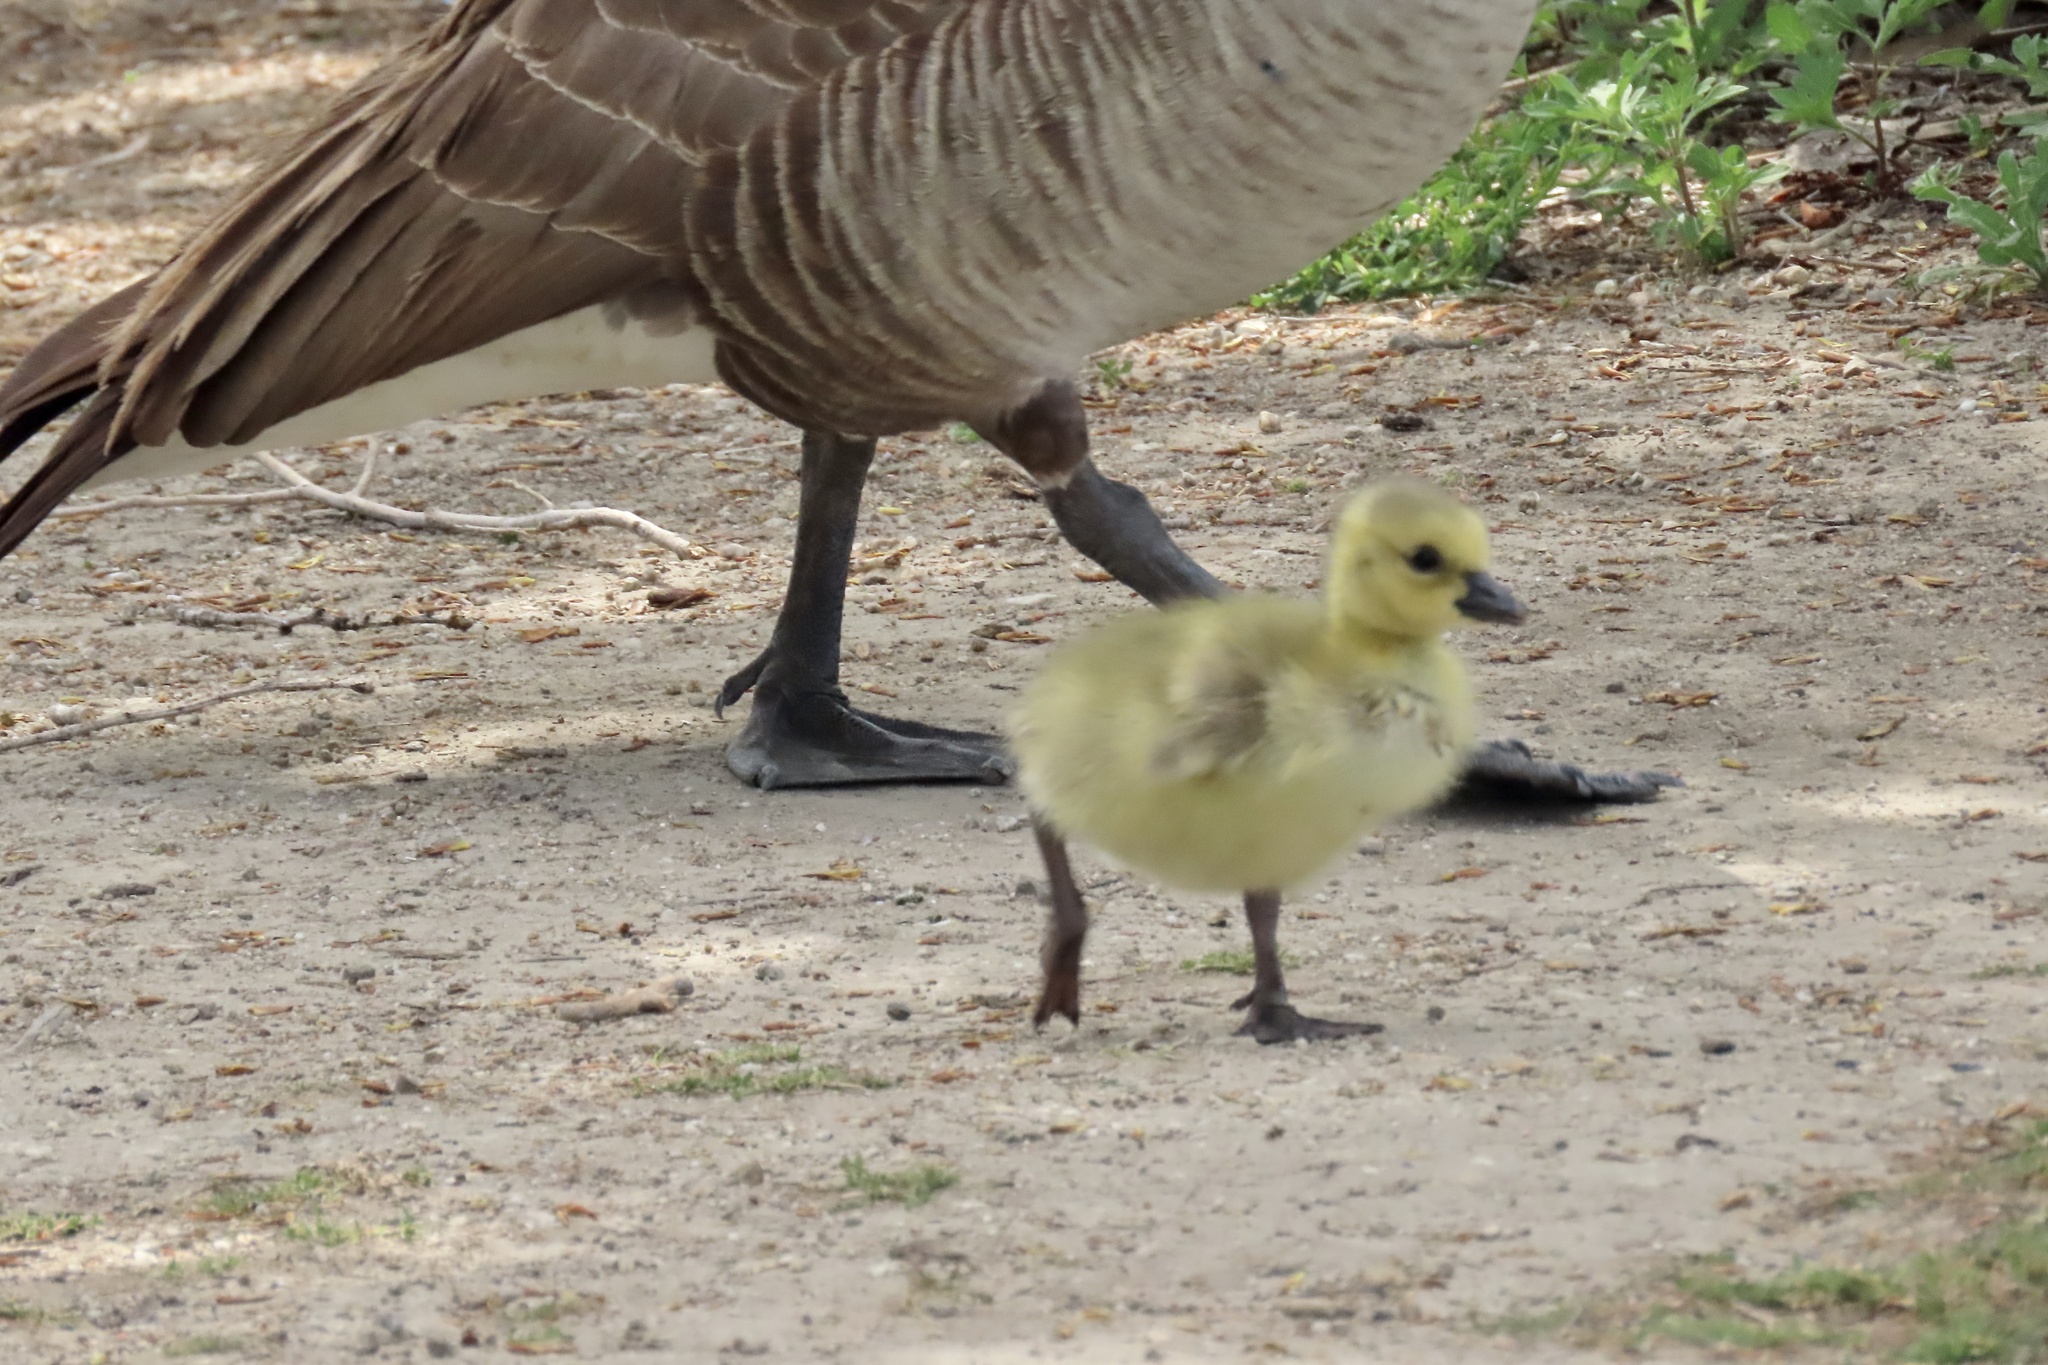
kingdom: Animalia
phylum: Chordata
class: Aves
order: Anseriformes
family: Anatidae
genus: Branta
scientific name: Branta canadensis
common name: Canada goose
